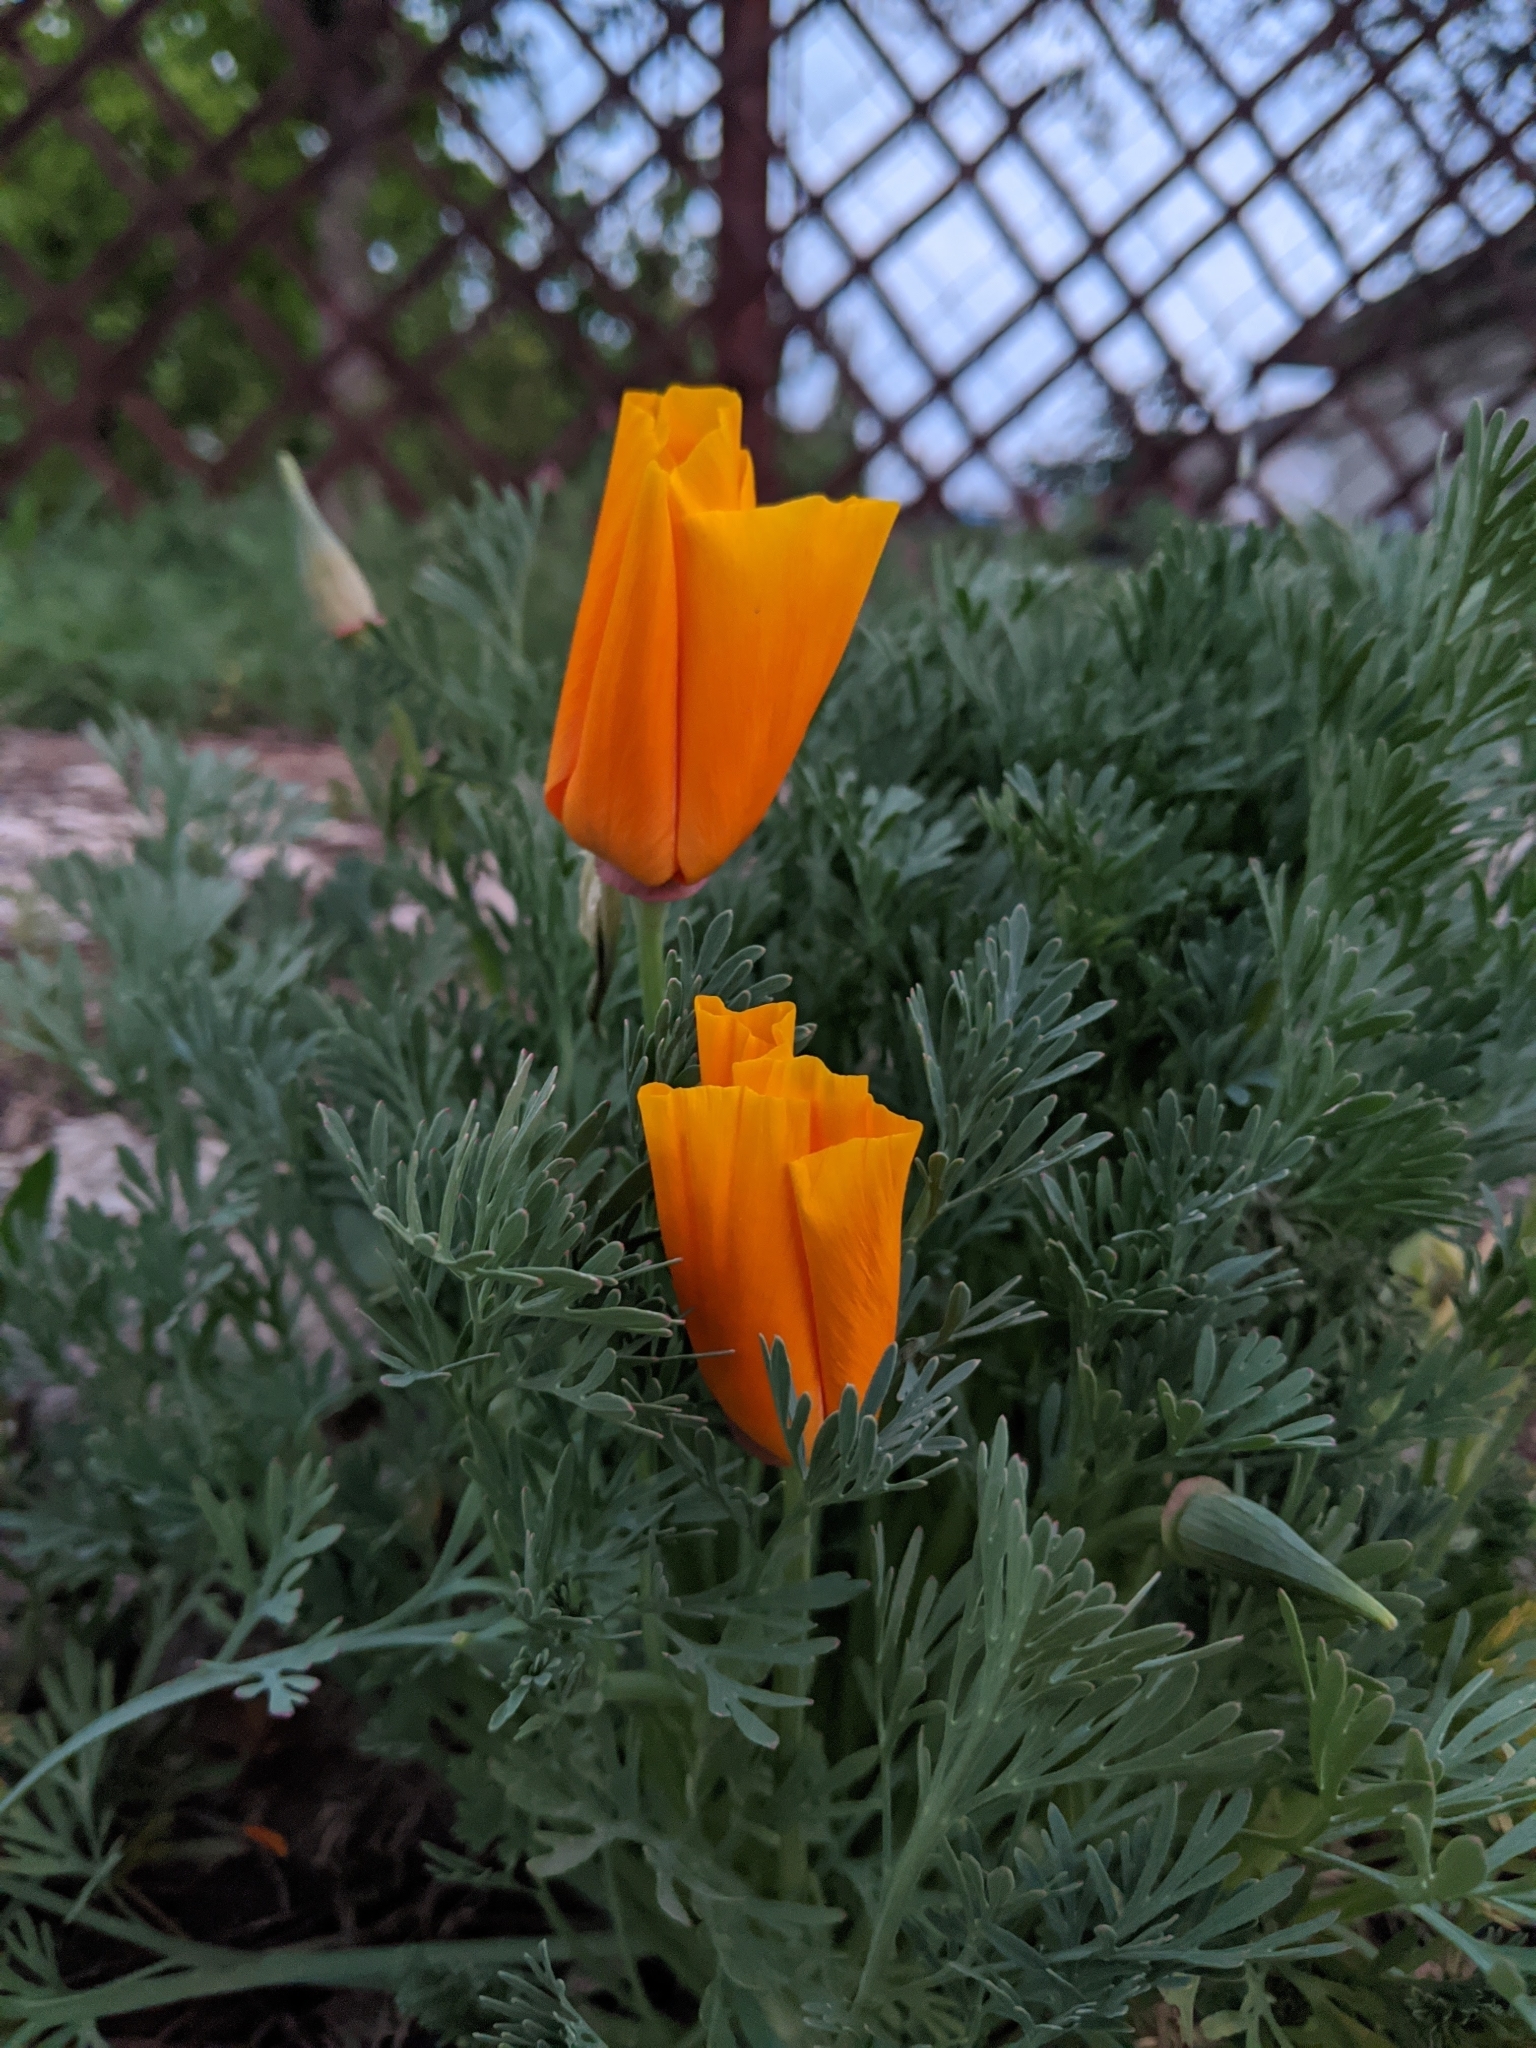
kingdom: Plantae
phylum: Tracheophyta
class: Magnoliopsida
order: Ranunculales
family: Papaveraceae
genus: Eschscholzia
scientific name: Eschscholzia californica
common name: California poppy
